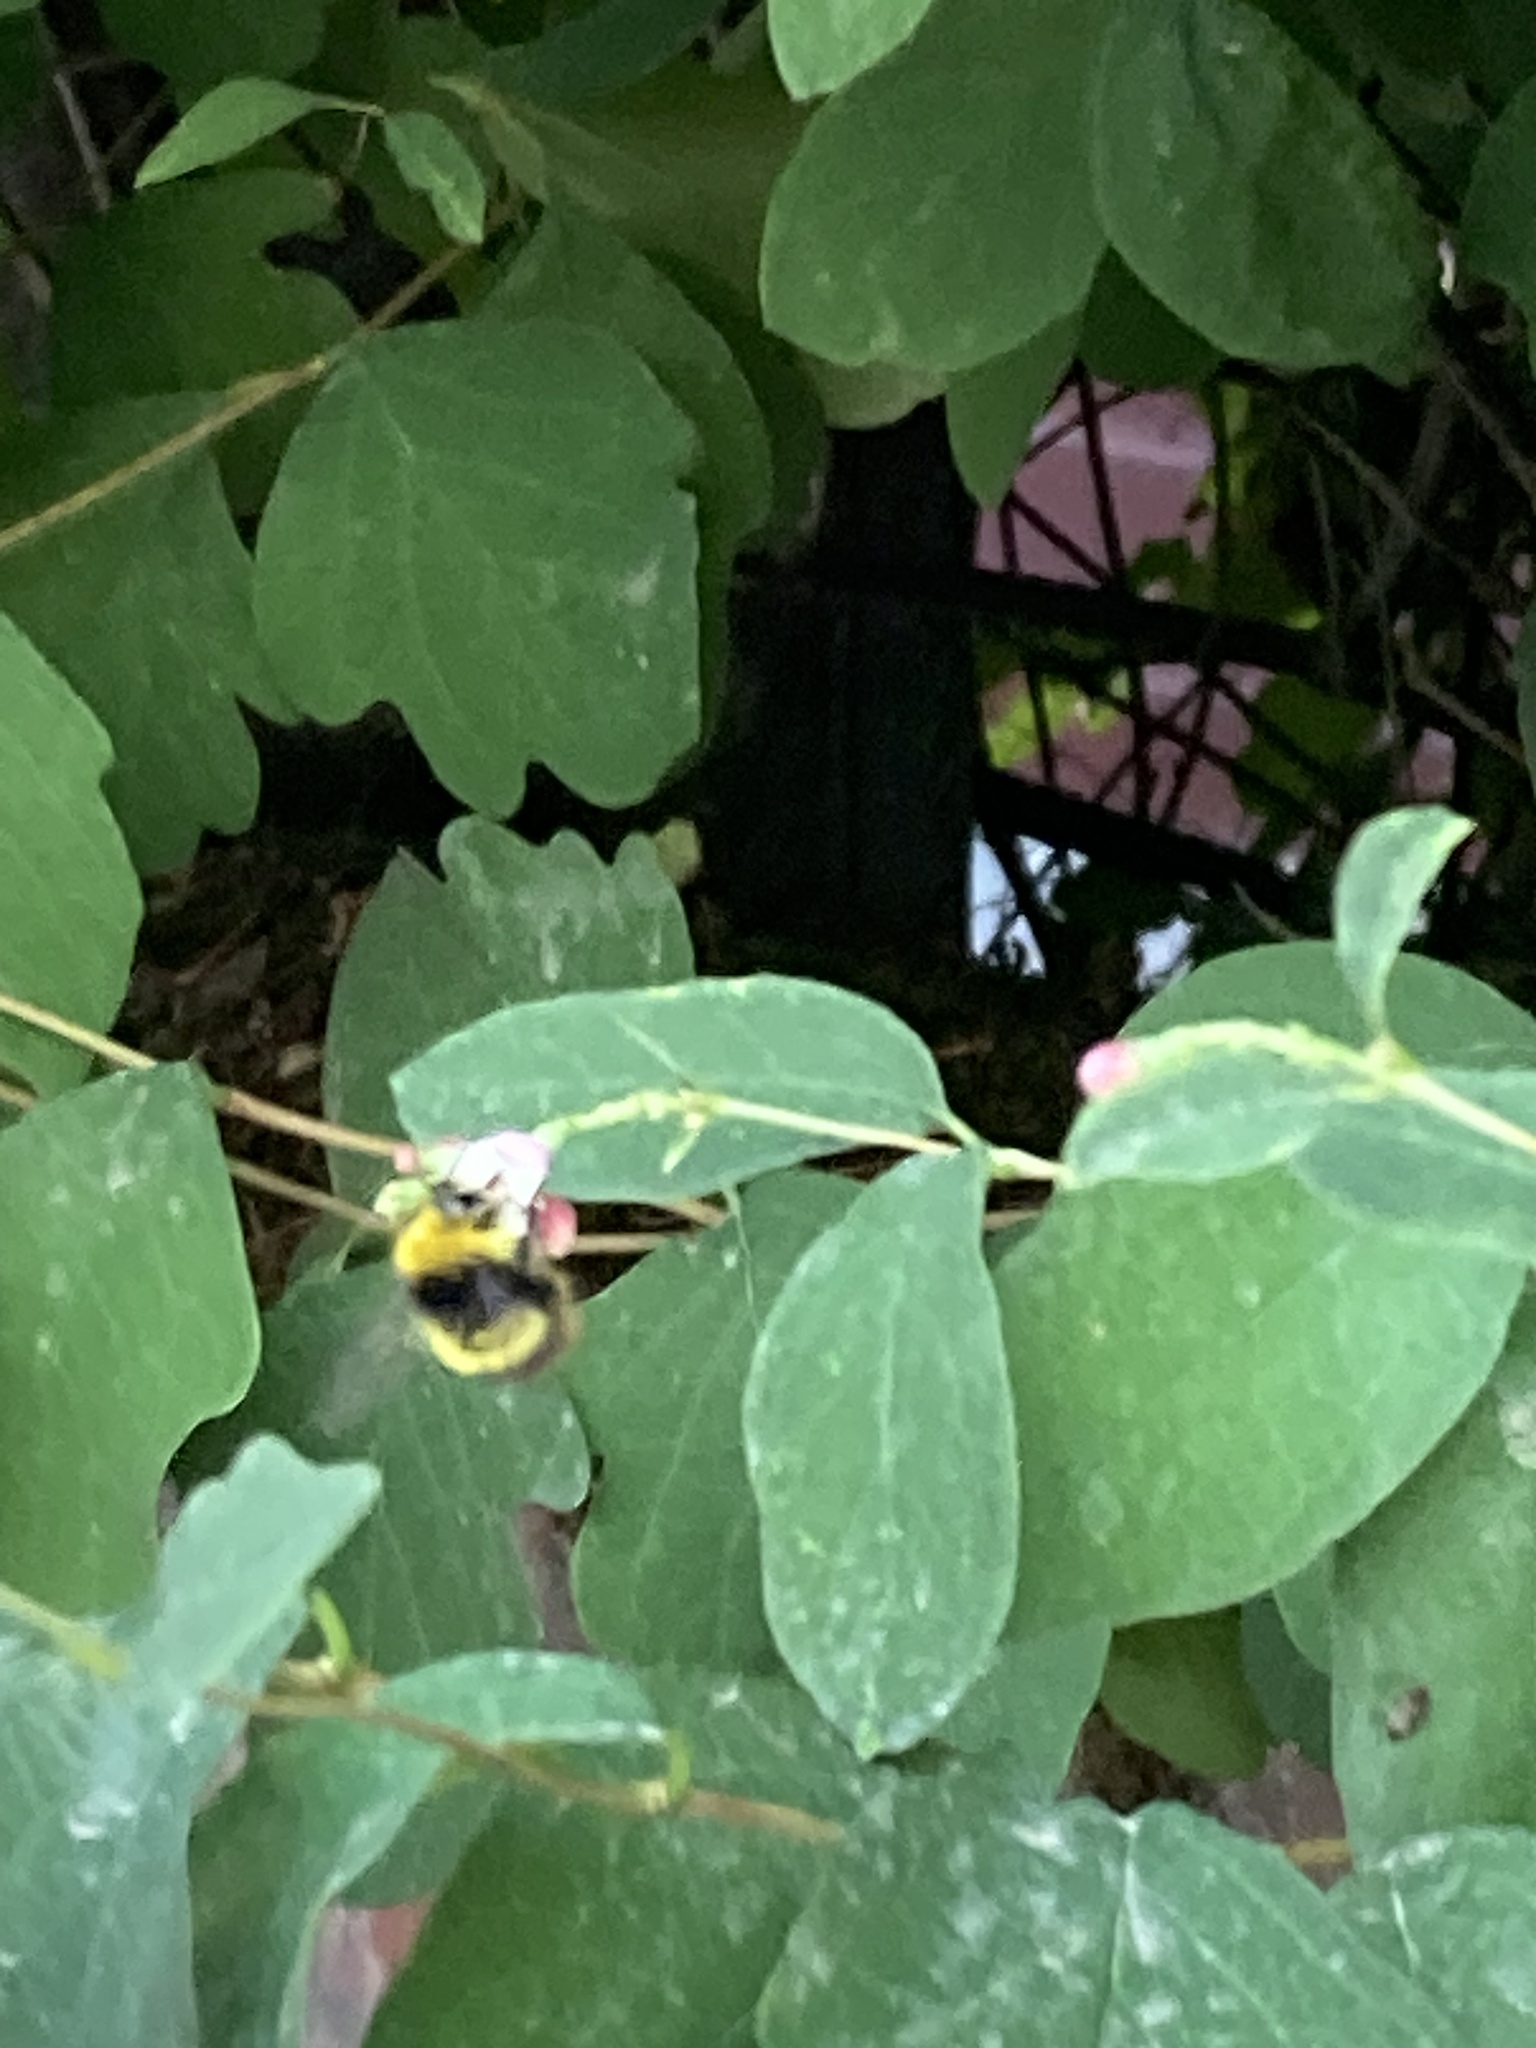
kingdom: Animalia
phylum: Arthropoda
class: Insecta
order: Hymenoptera
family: Apidae
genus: Bombus
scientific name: Bombus pratorum
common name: Early humble-bee
